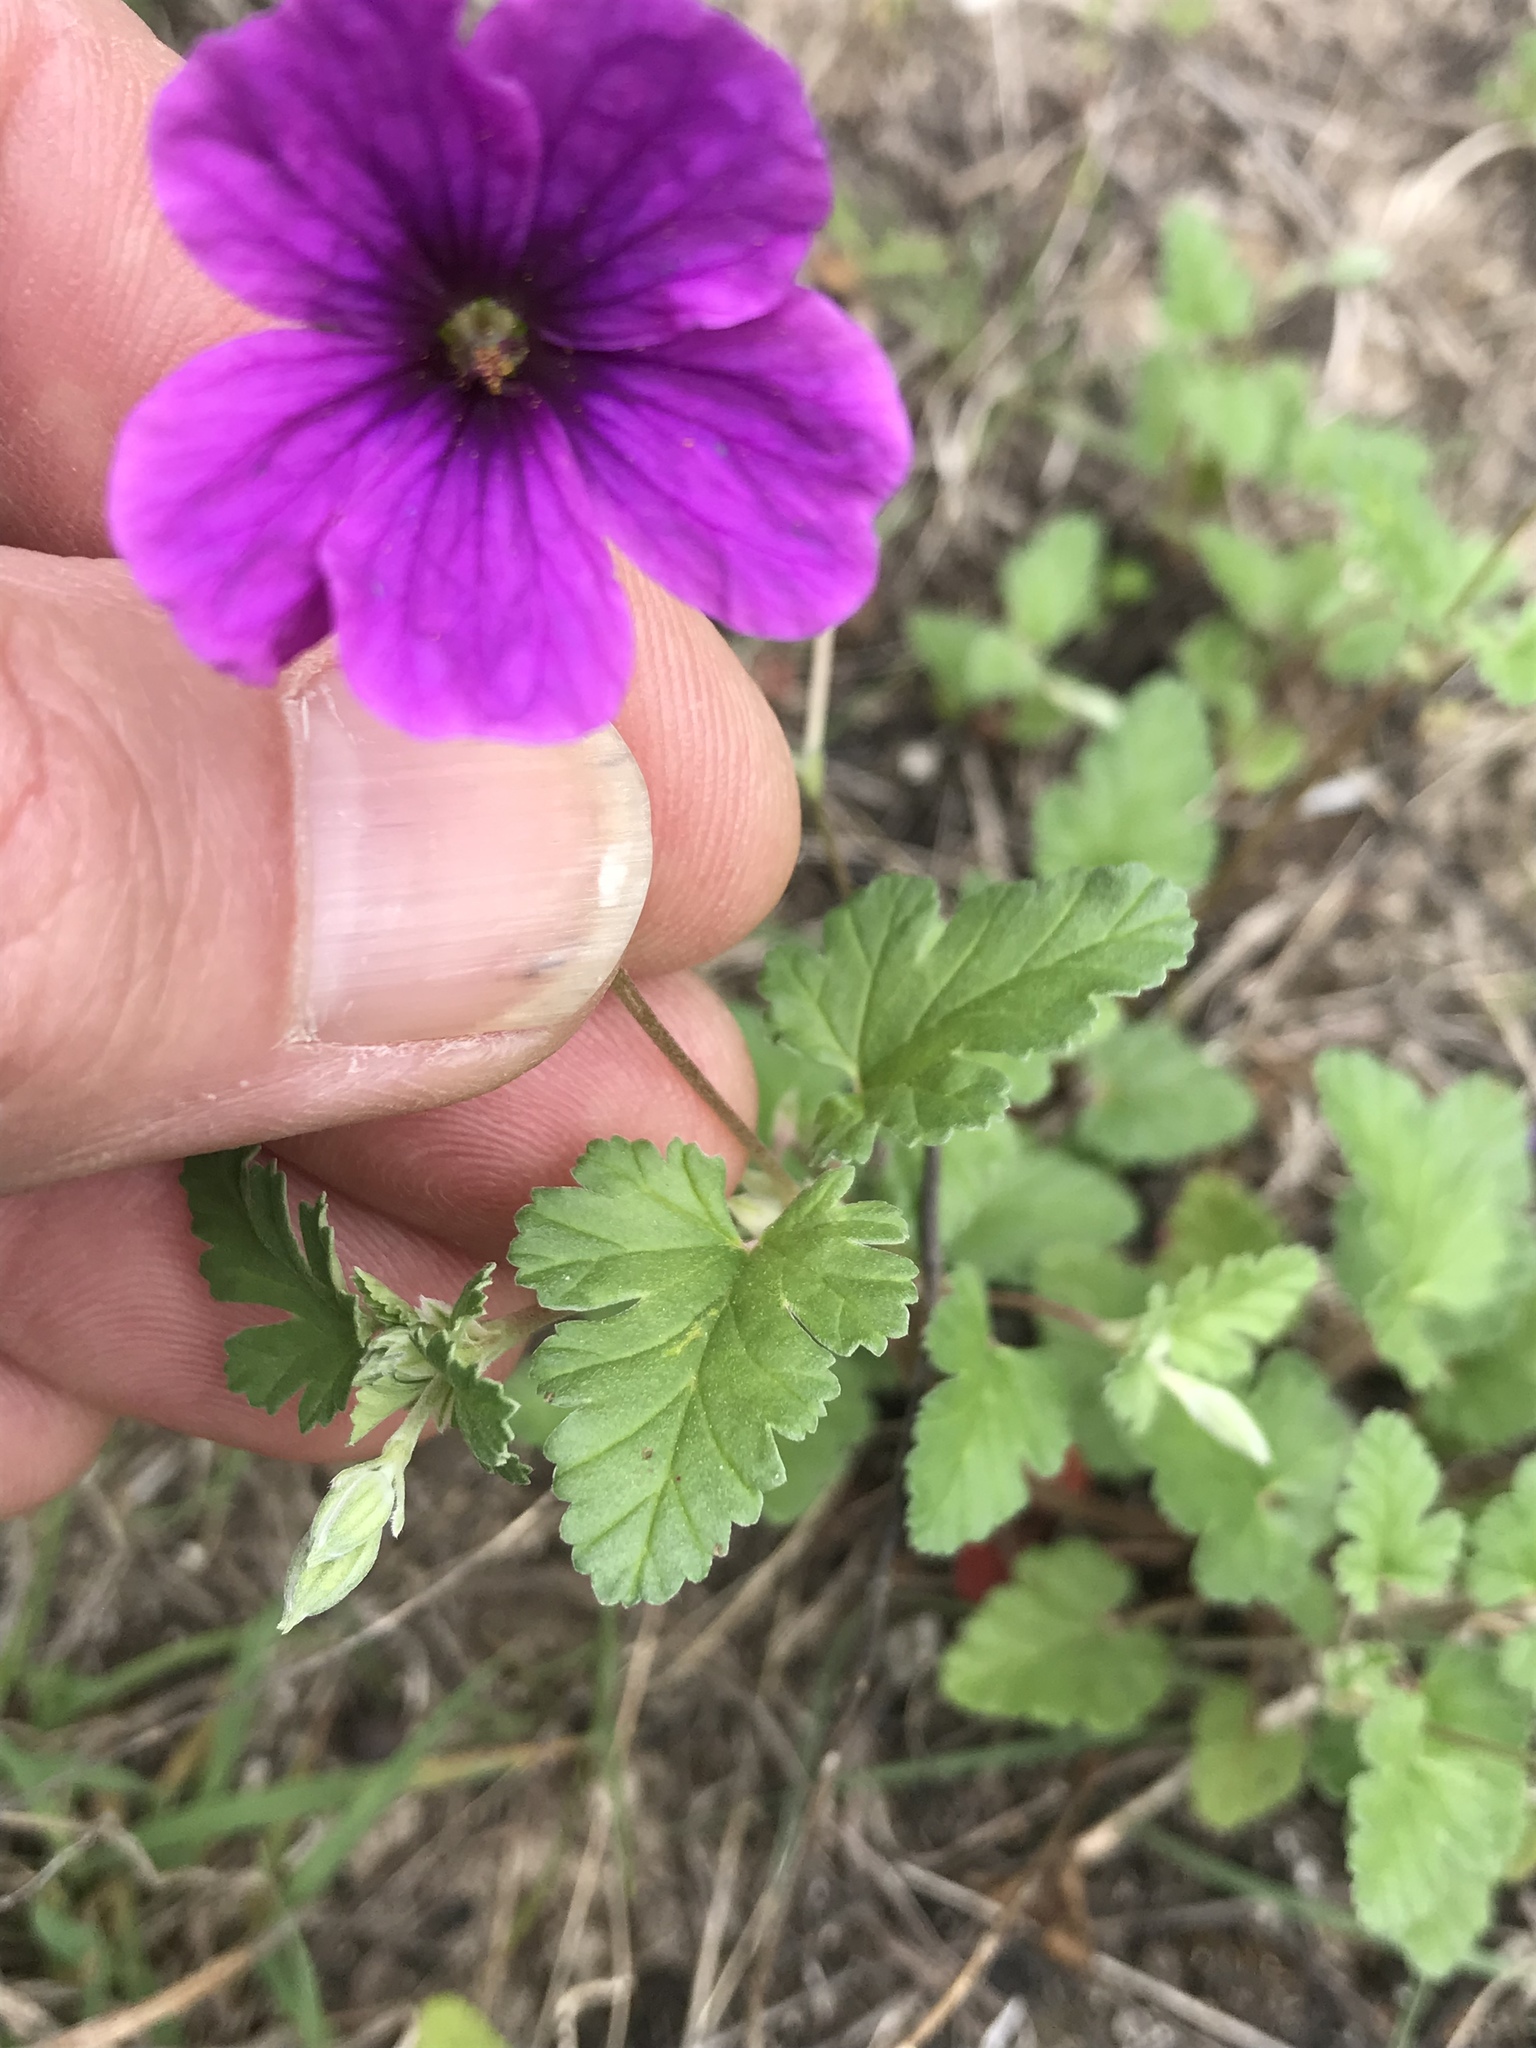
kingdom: Plantae
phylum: Tracheophyta
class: Magnoliopsida
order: Geraniales
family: Geraniaceae
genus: Erodium
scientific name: Erodium texanum
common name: Texas stork's-bill
